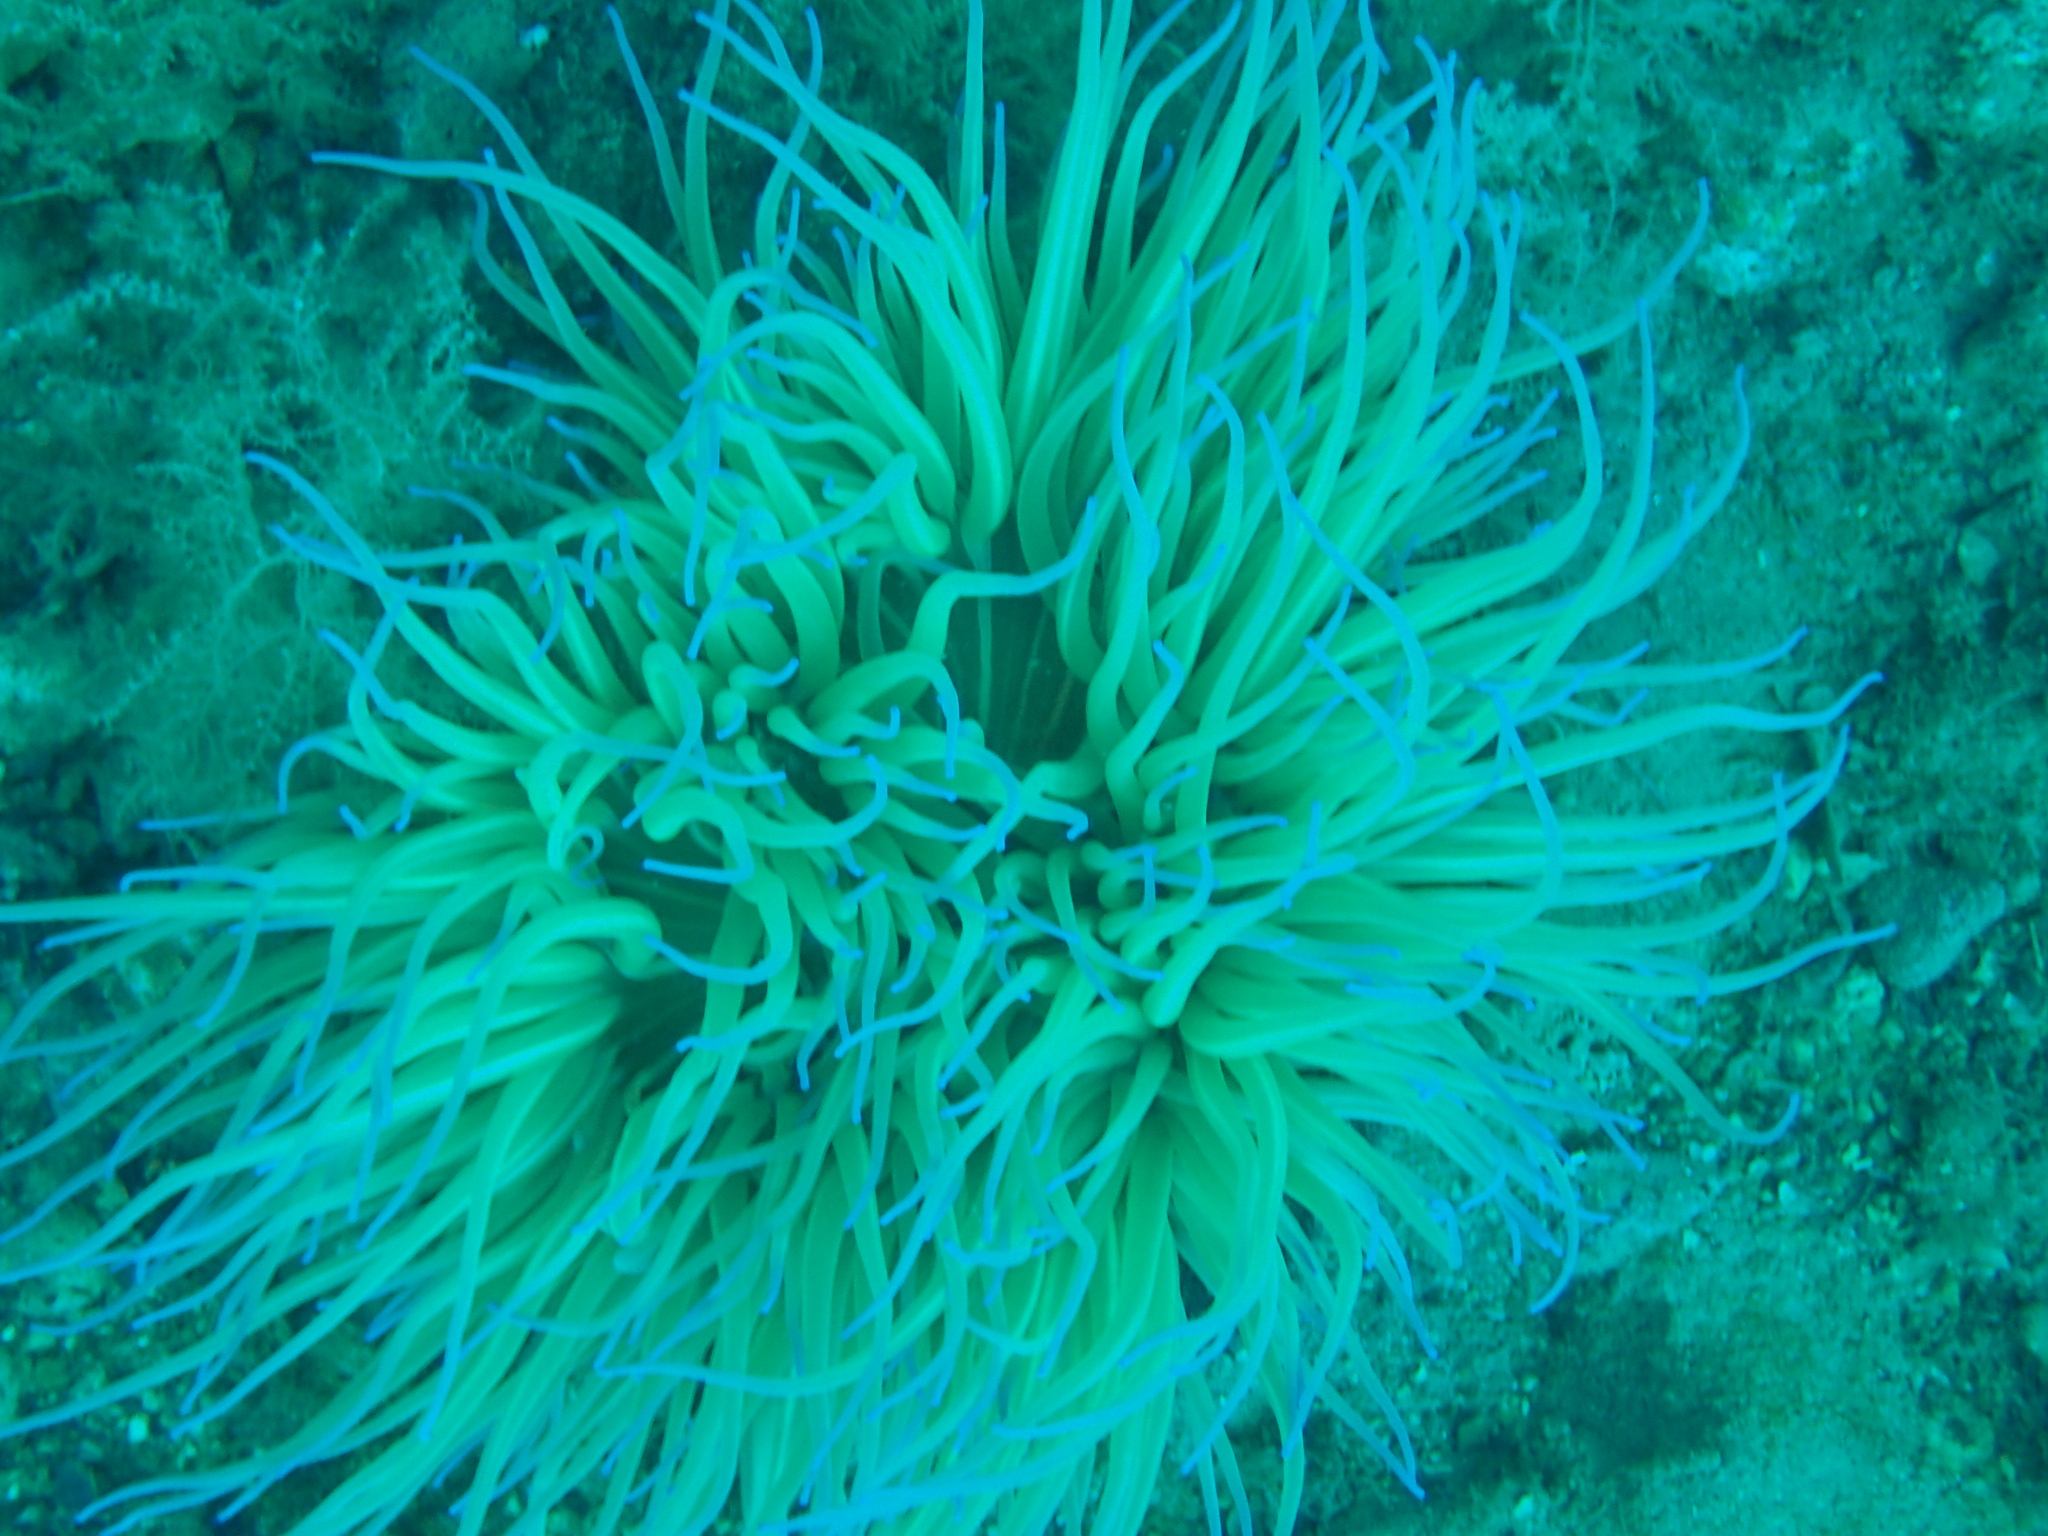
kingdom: Animalia
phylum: Cnidaria
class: Anthozoa
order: Actiniaria
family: Actiniidae
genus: Anemonia
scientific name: Anemonia viridis
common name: Snakelocks anemone
